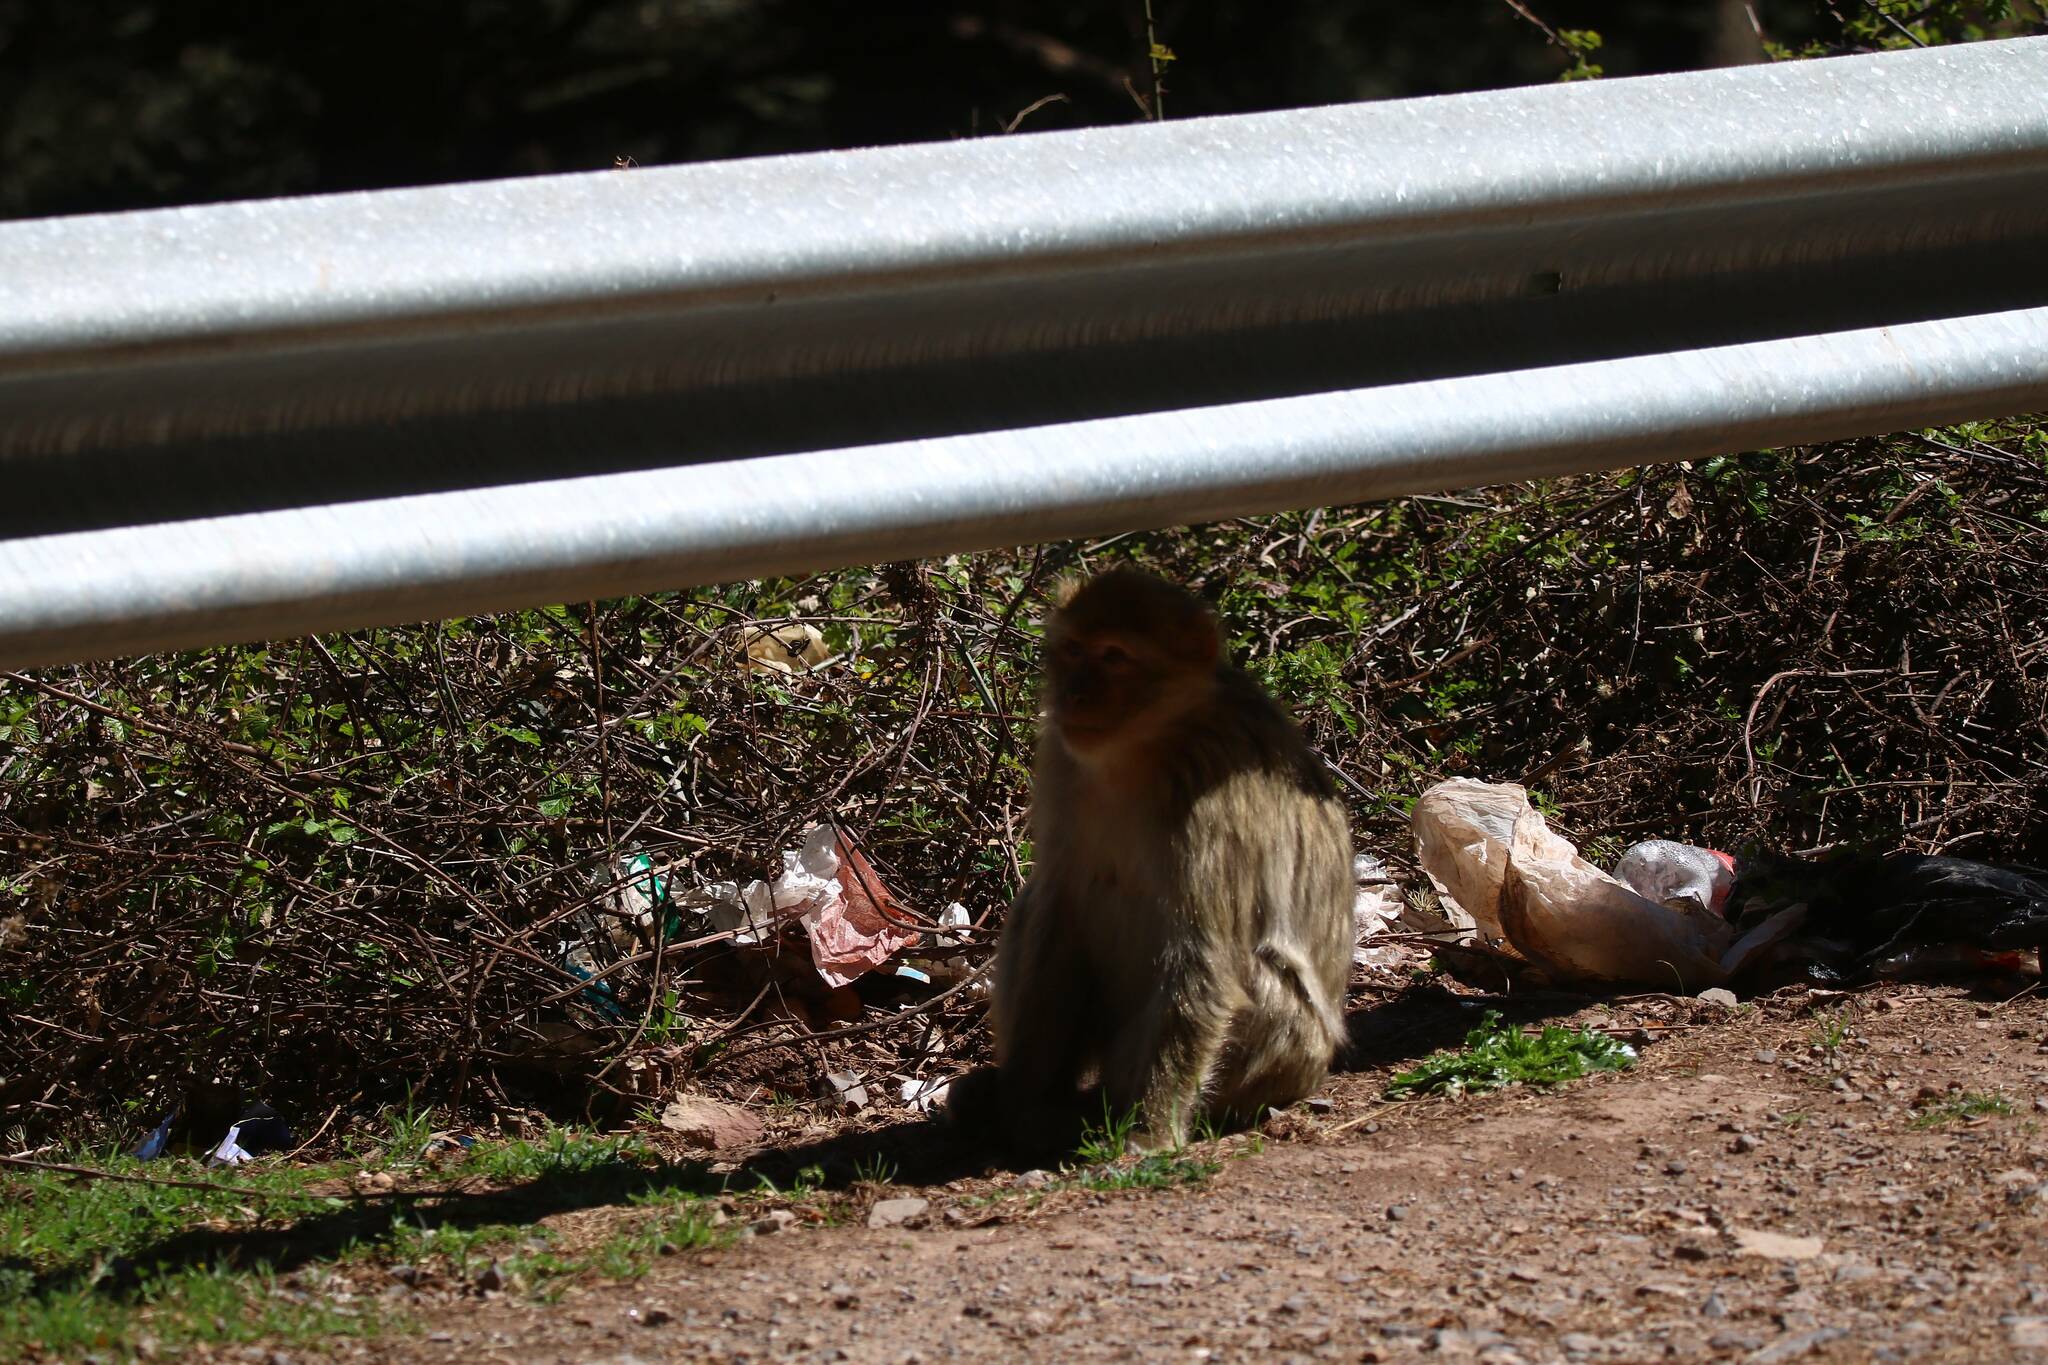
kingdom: Animalia
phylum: Chordata
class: Mammalia
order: Primates
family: Cercopithecidae
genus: Macaca
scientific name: Macaca sylvanus
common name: Barbary macaque
